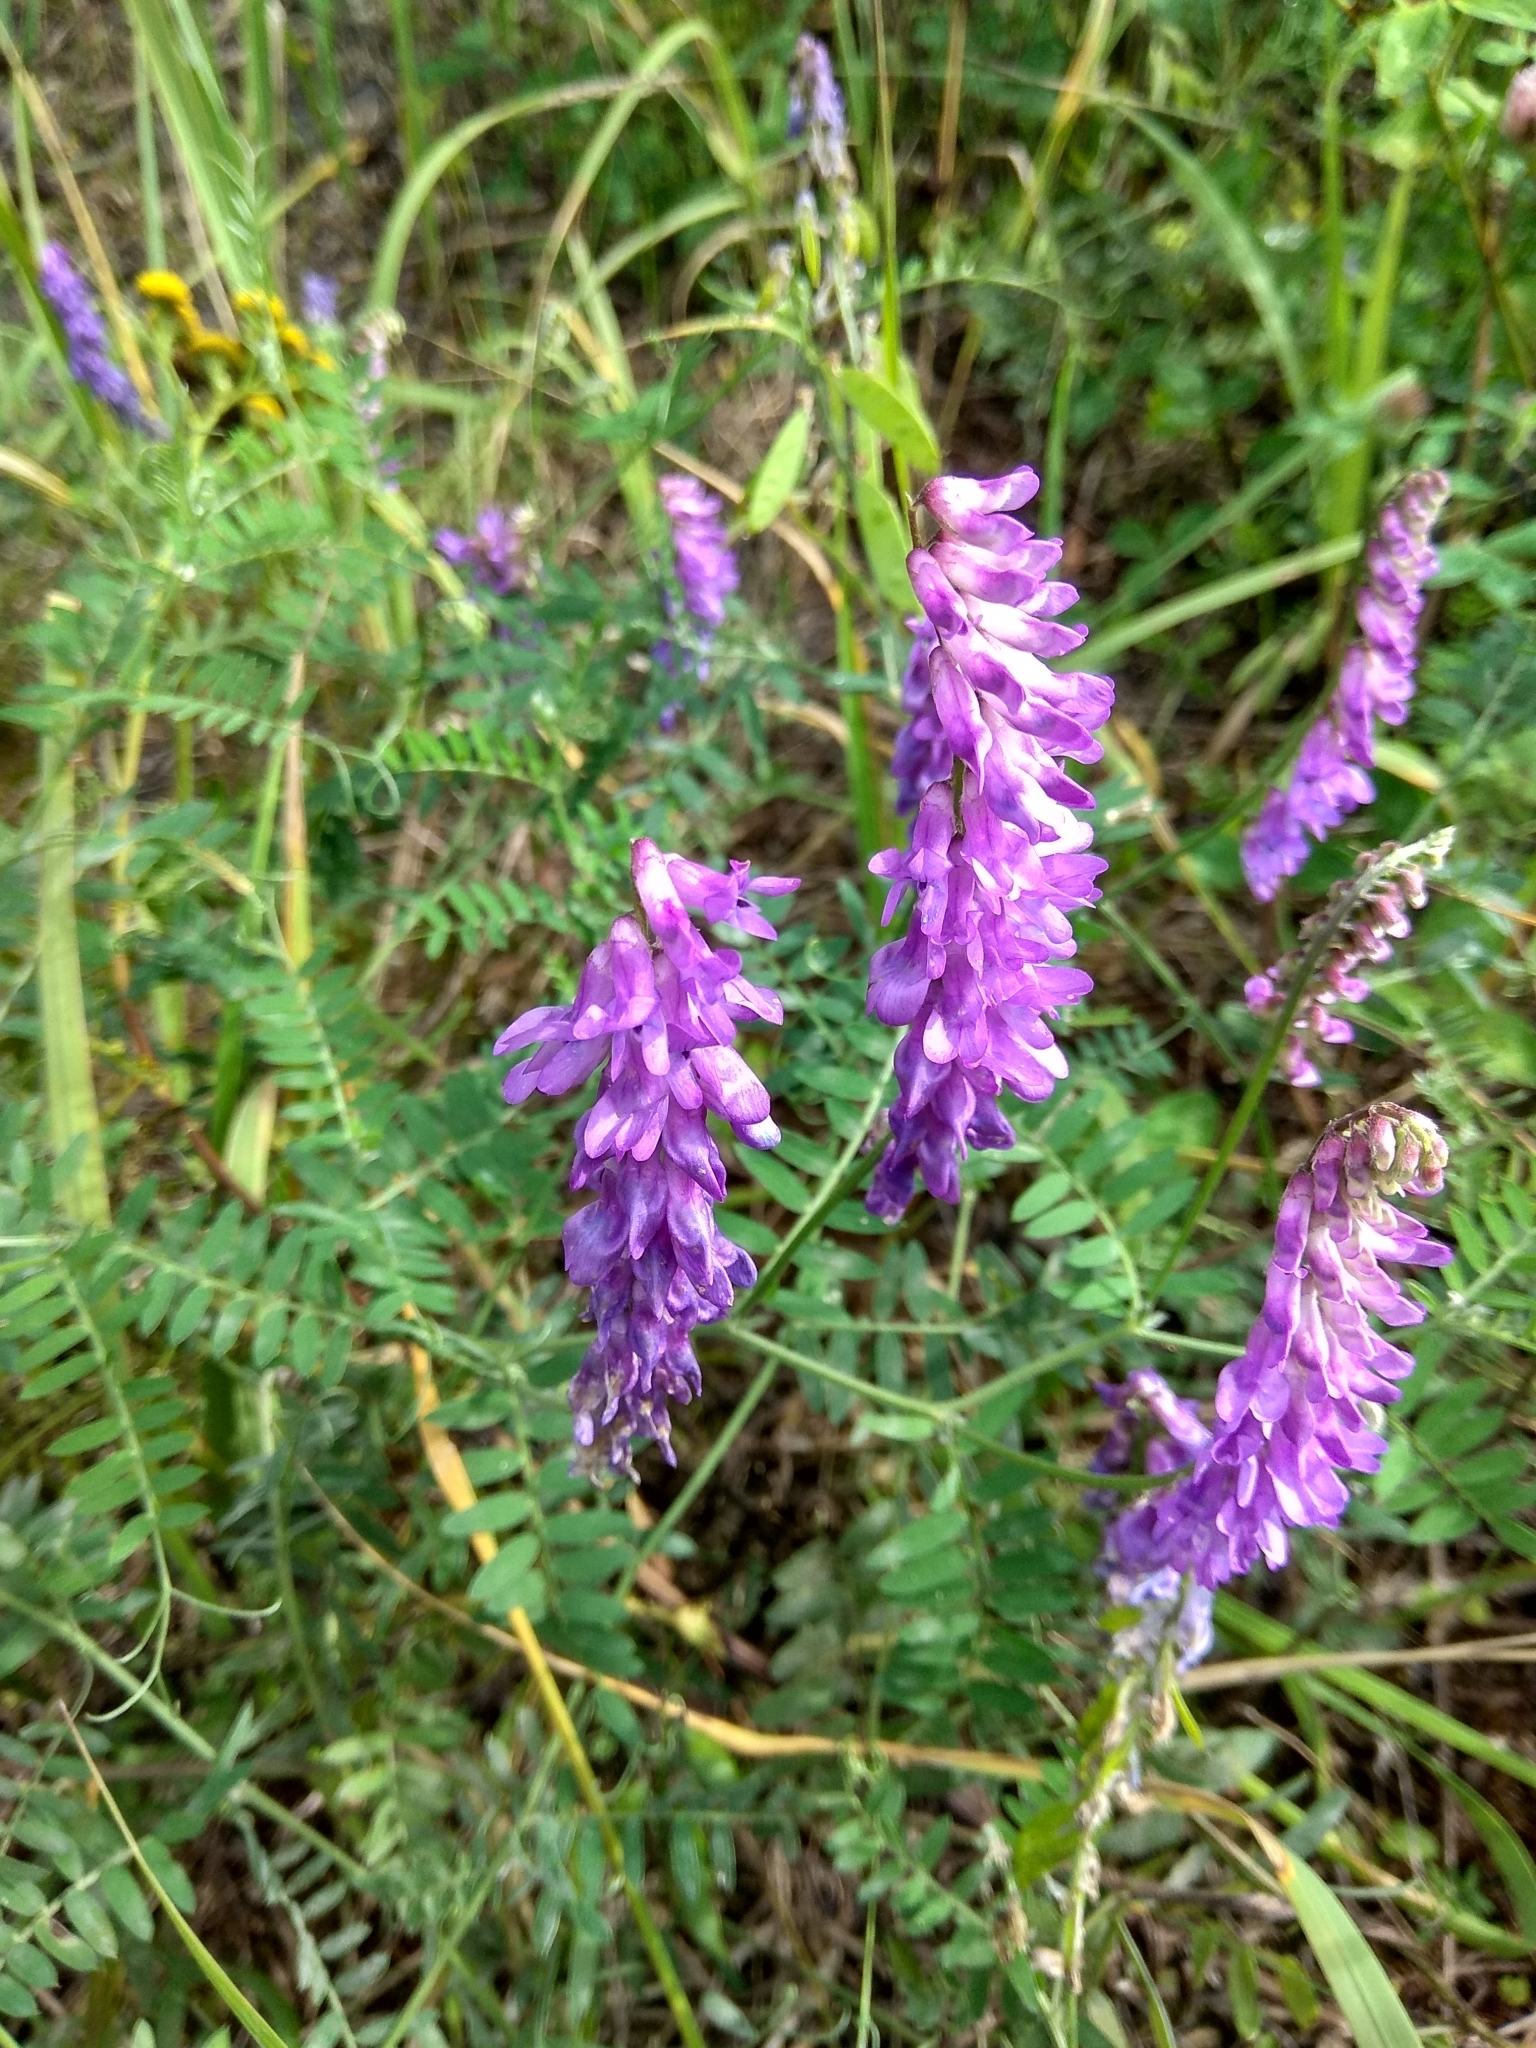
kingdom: Plantae
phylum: Tracheophyta
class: Magnoliopsida
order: Fabales
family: Fabaceae
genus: Vicia
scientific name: Vicia cracca
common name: Bird vetch
